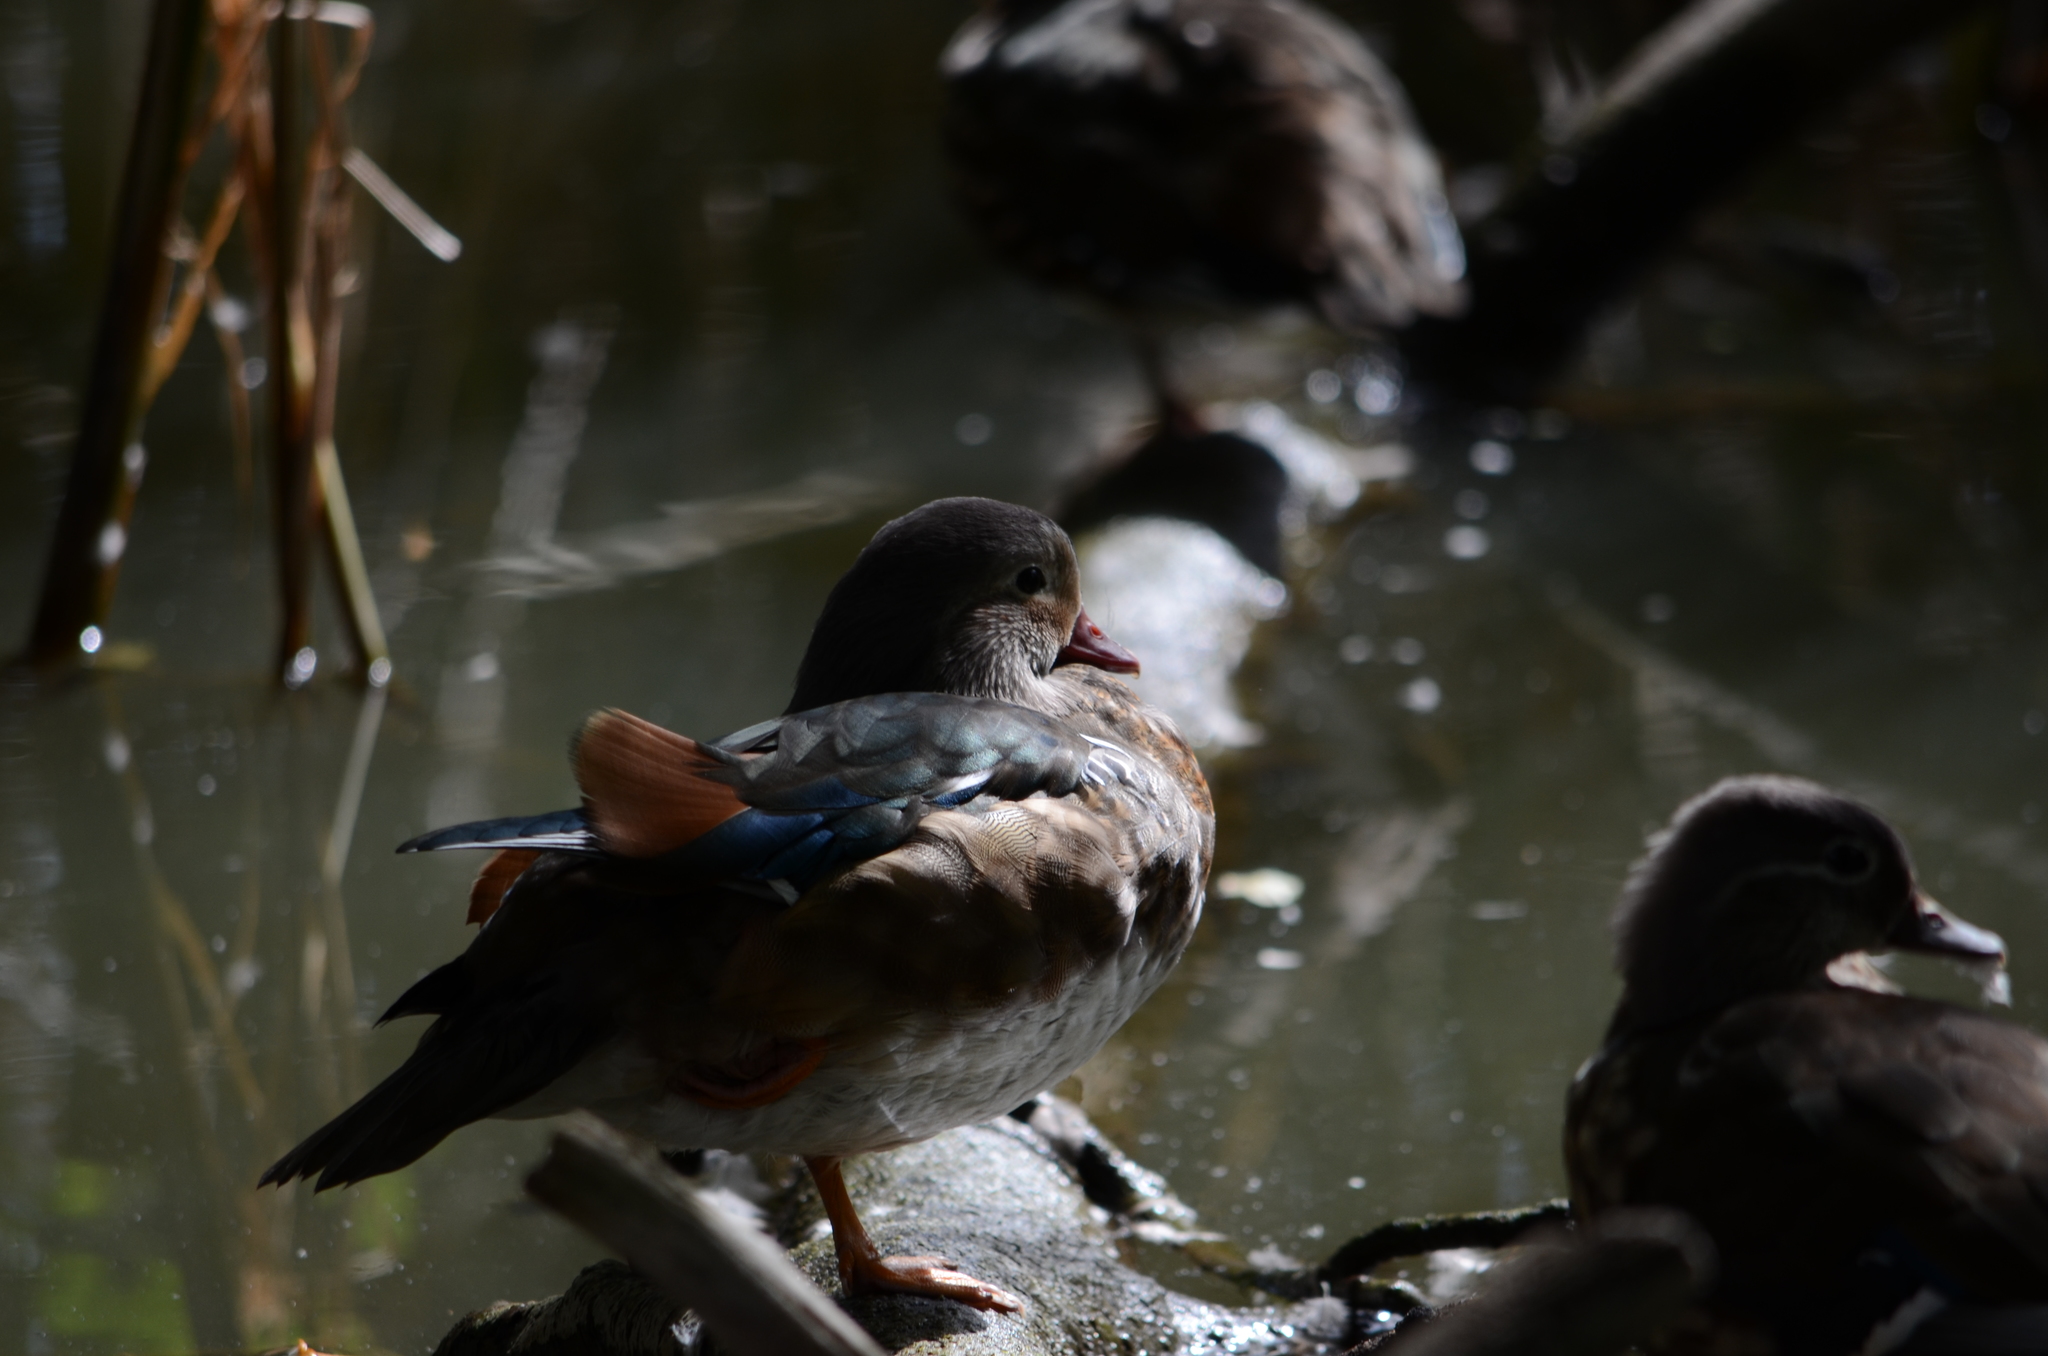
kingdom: Animalia
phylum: Chordata
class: Aves
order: Anseriformes
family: Anatidae
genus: Aix
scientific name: Aix galericulata
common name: Mandarin duck
